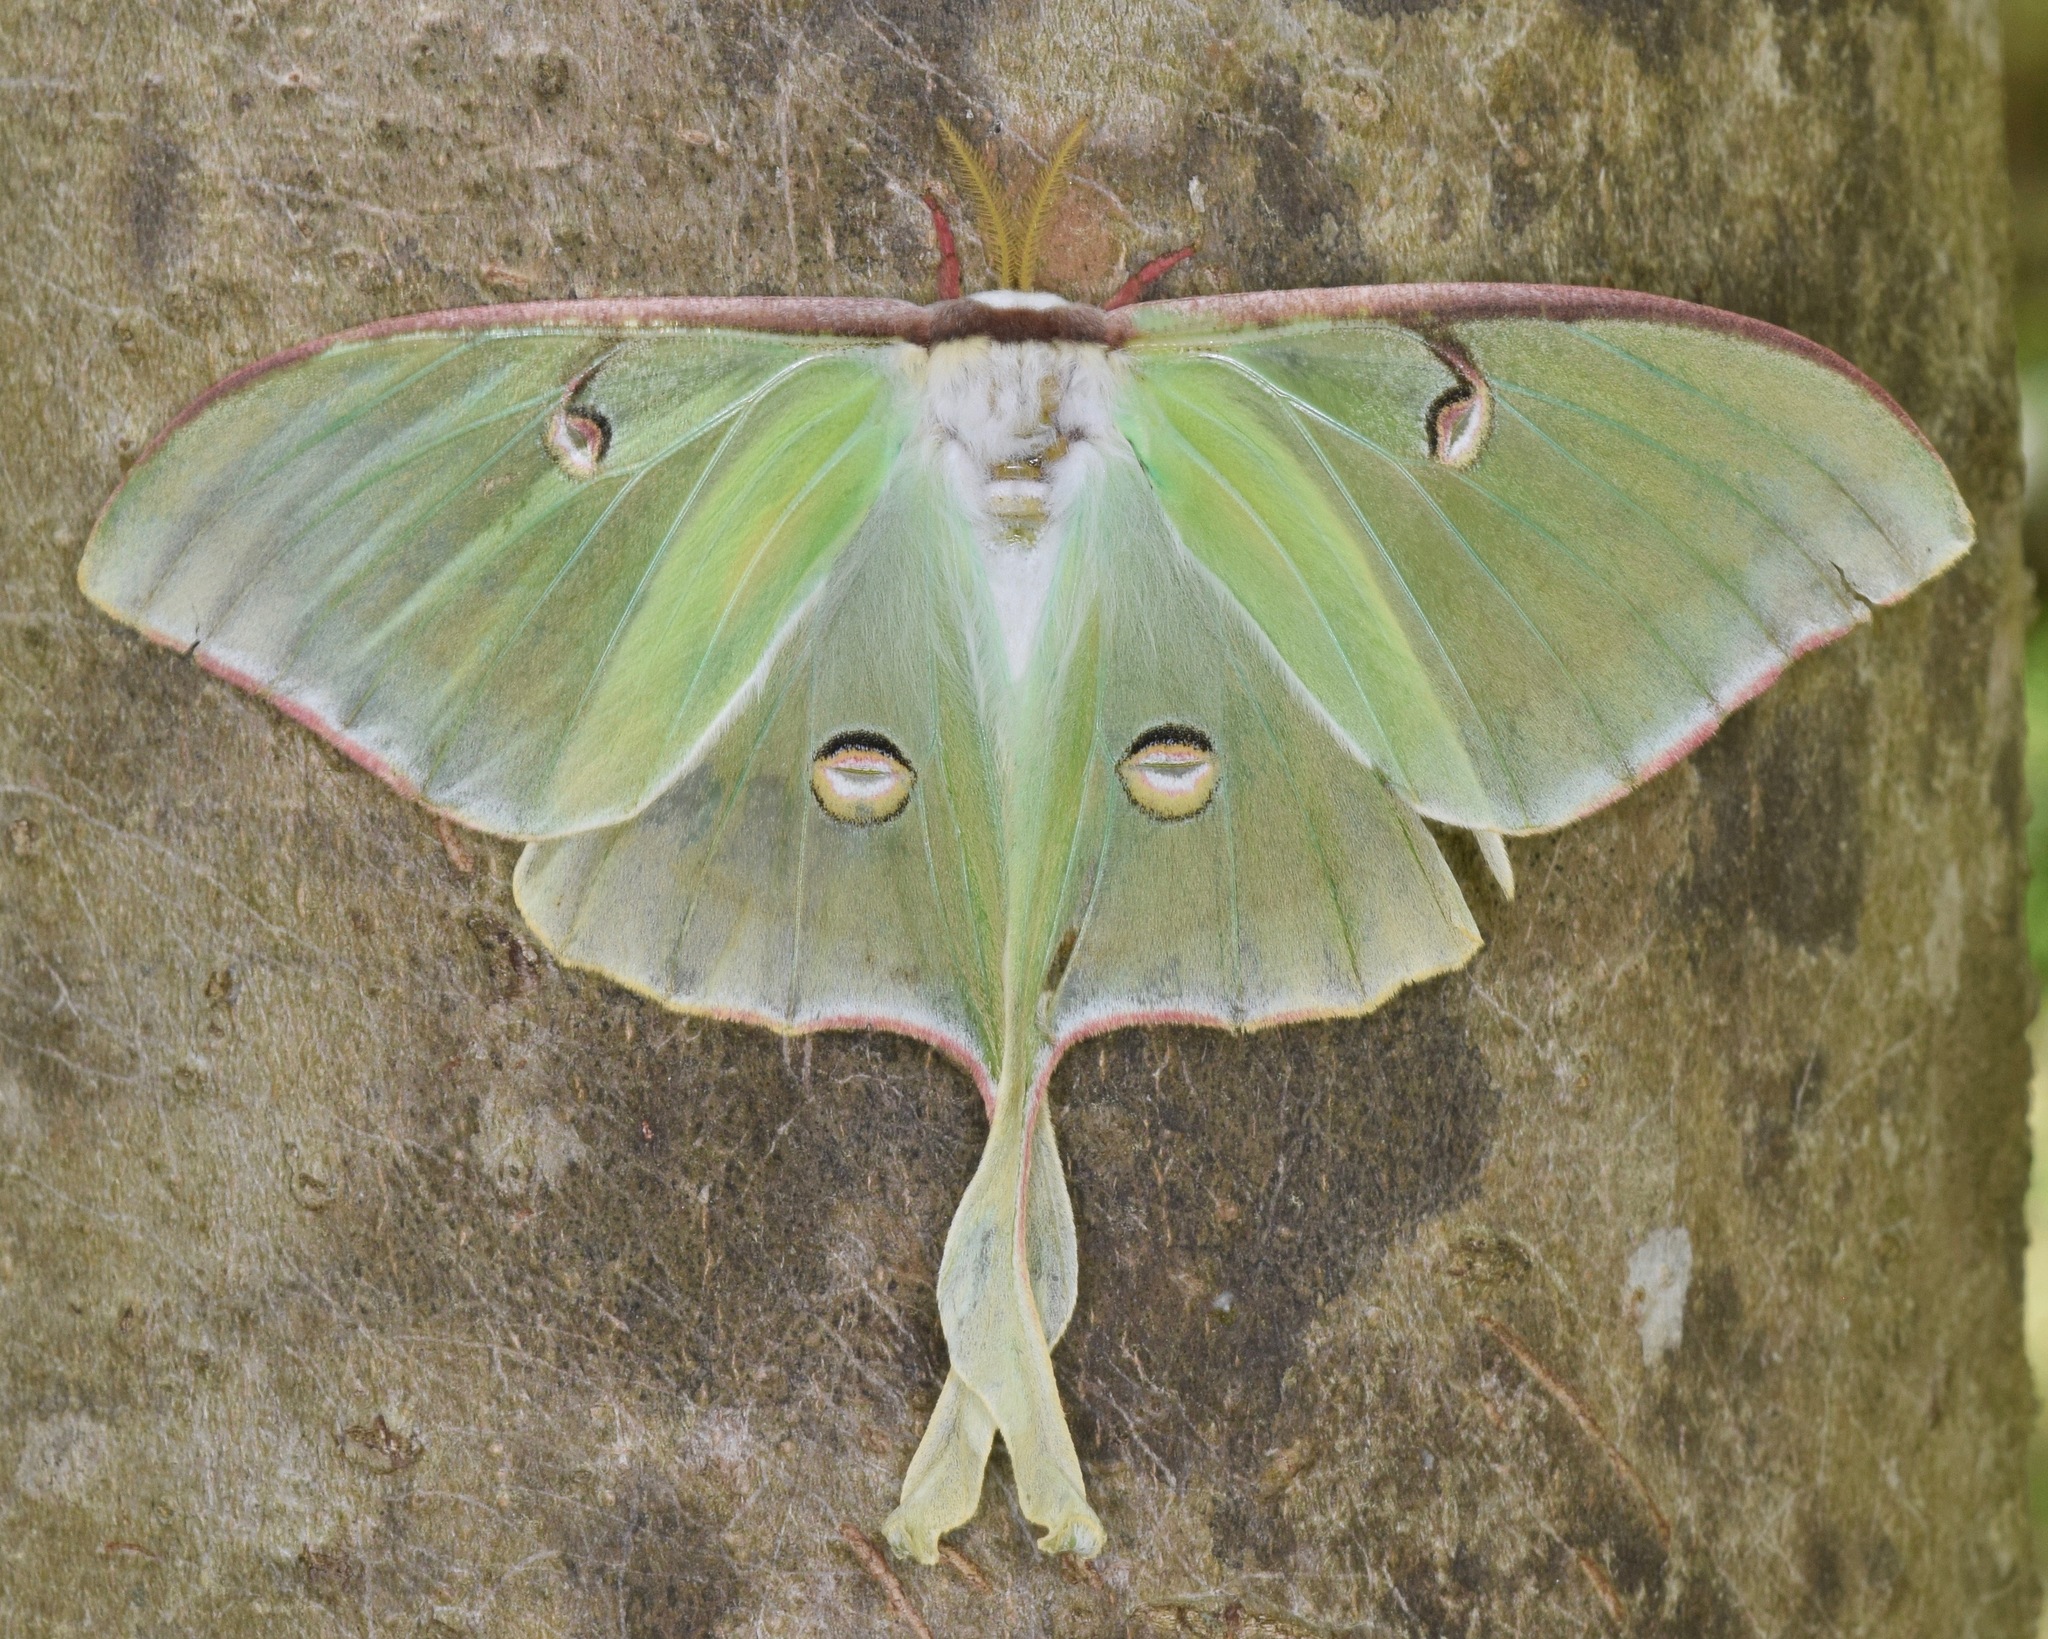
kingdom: Animalia
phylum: Arthropoda
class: Insecta
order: Lepidoptera
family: Saturniidae
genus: Actias
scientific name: Actias luna
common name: Luna moth
